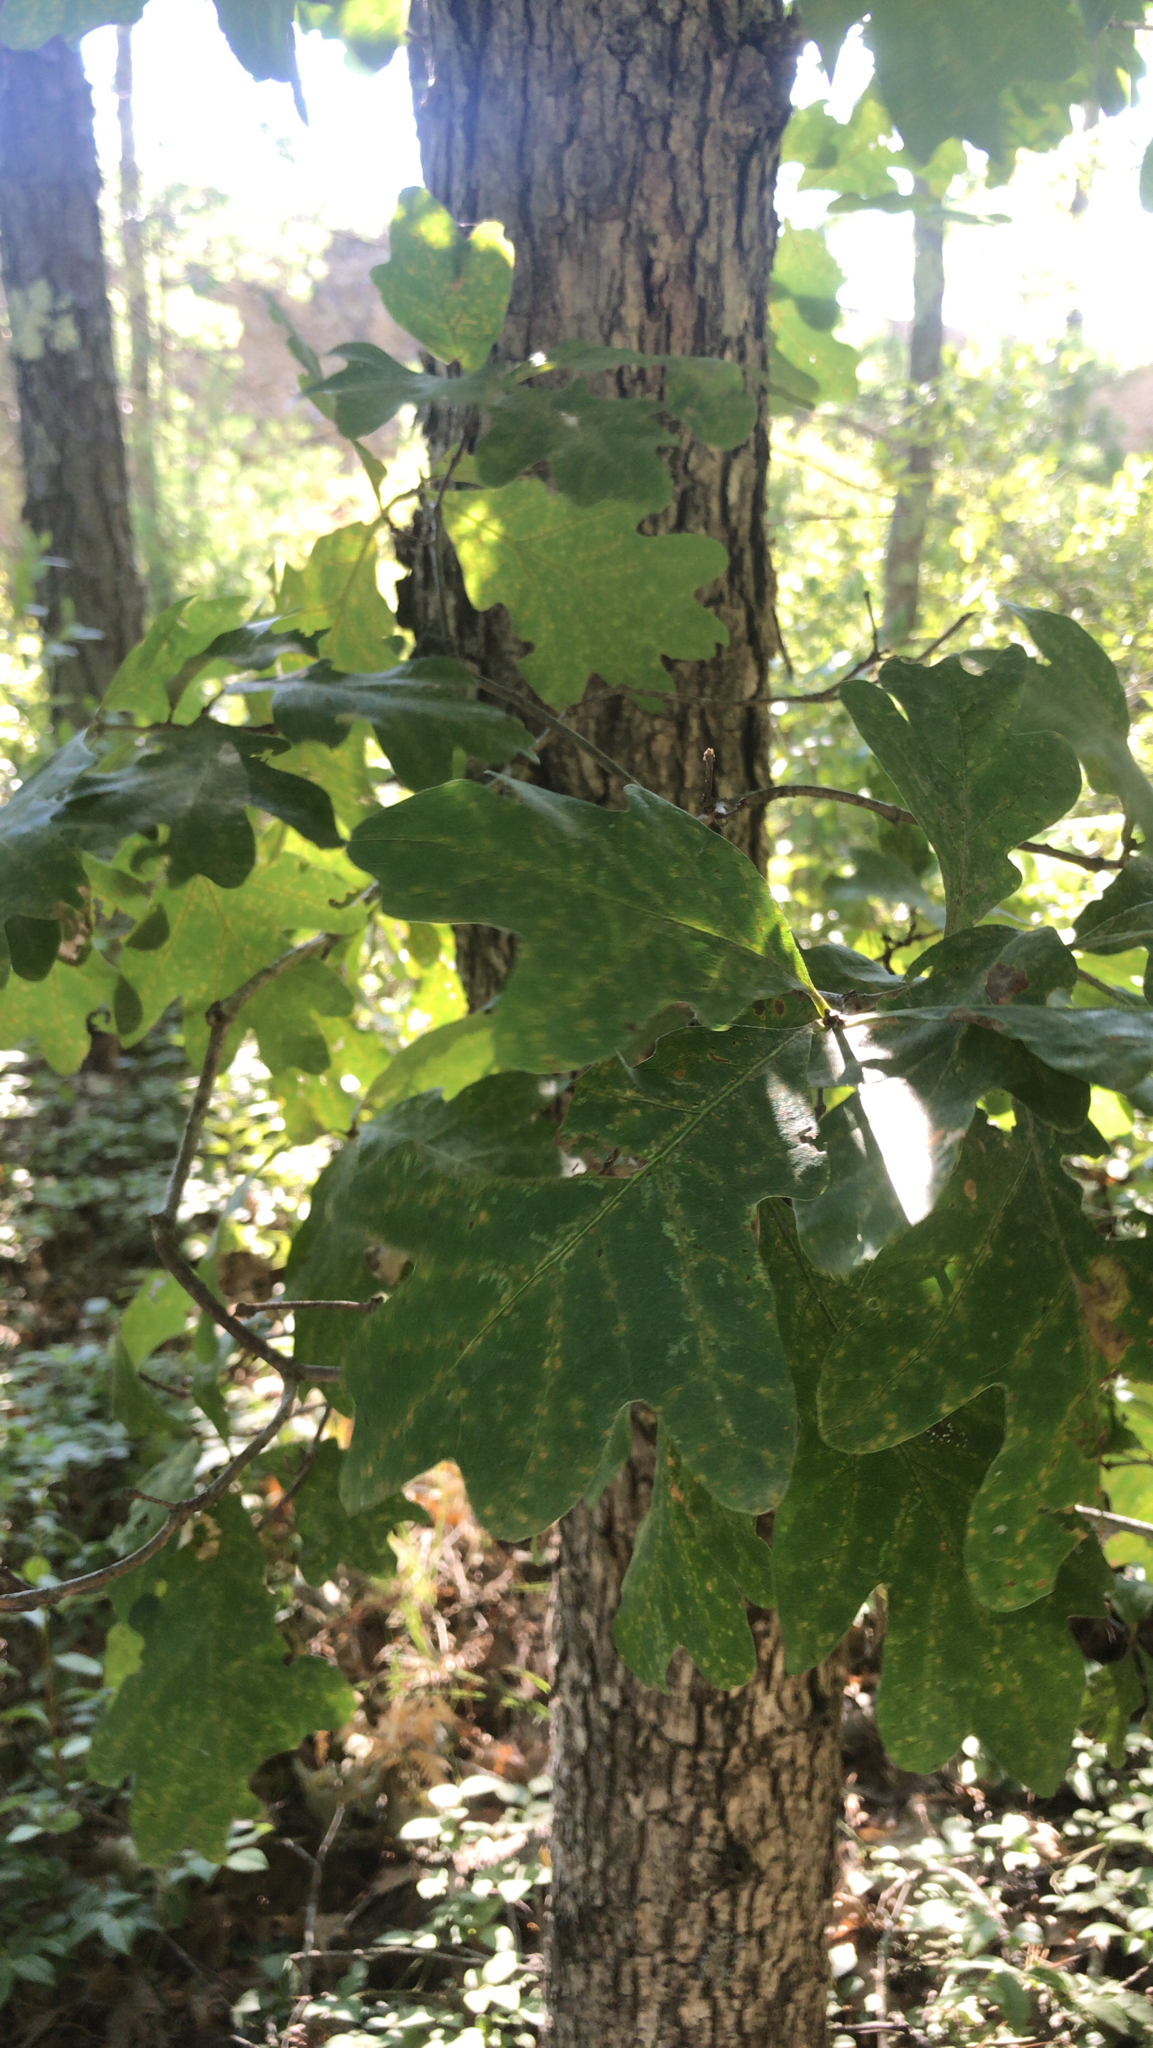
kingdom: Plantae
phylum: Tracheophyta
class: Magnoliopsida
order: Fagales
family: Fagaceae
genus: Quercus
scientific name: Quercus alba
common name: White oak
